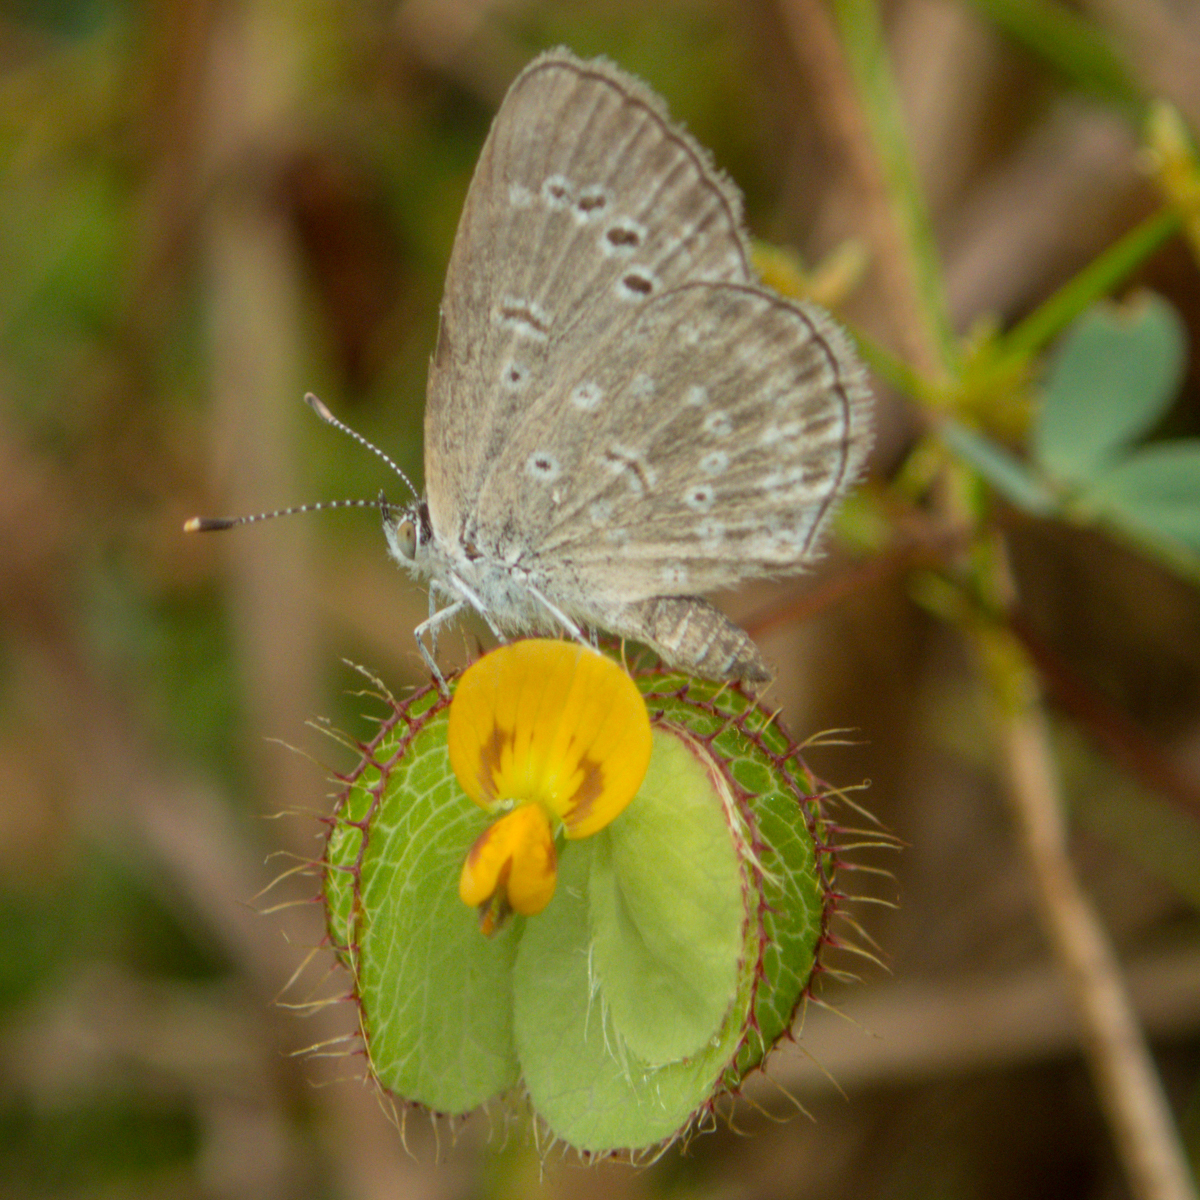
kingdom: Animalia
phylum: Arthropoda
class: Insecta
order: Lepidoptera
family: Lycaenidae
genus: Zizeeria
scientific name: Zizeeria karsandra
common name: Dark grass blue
